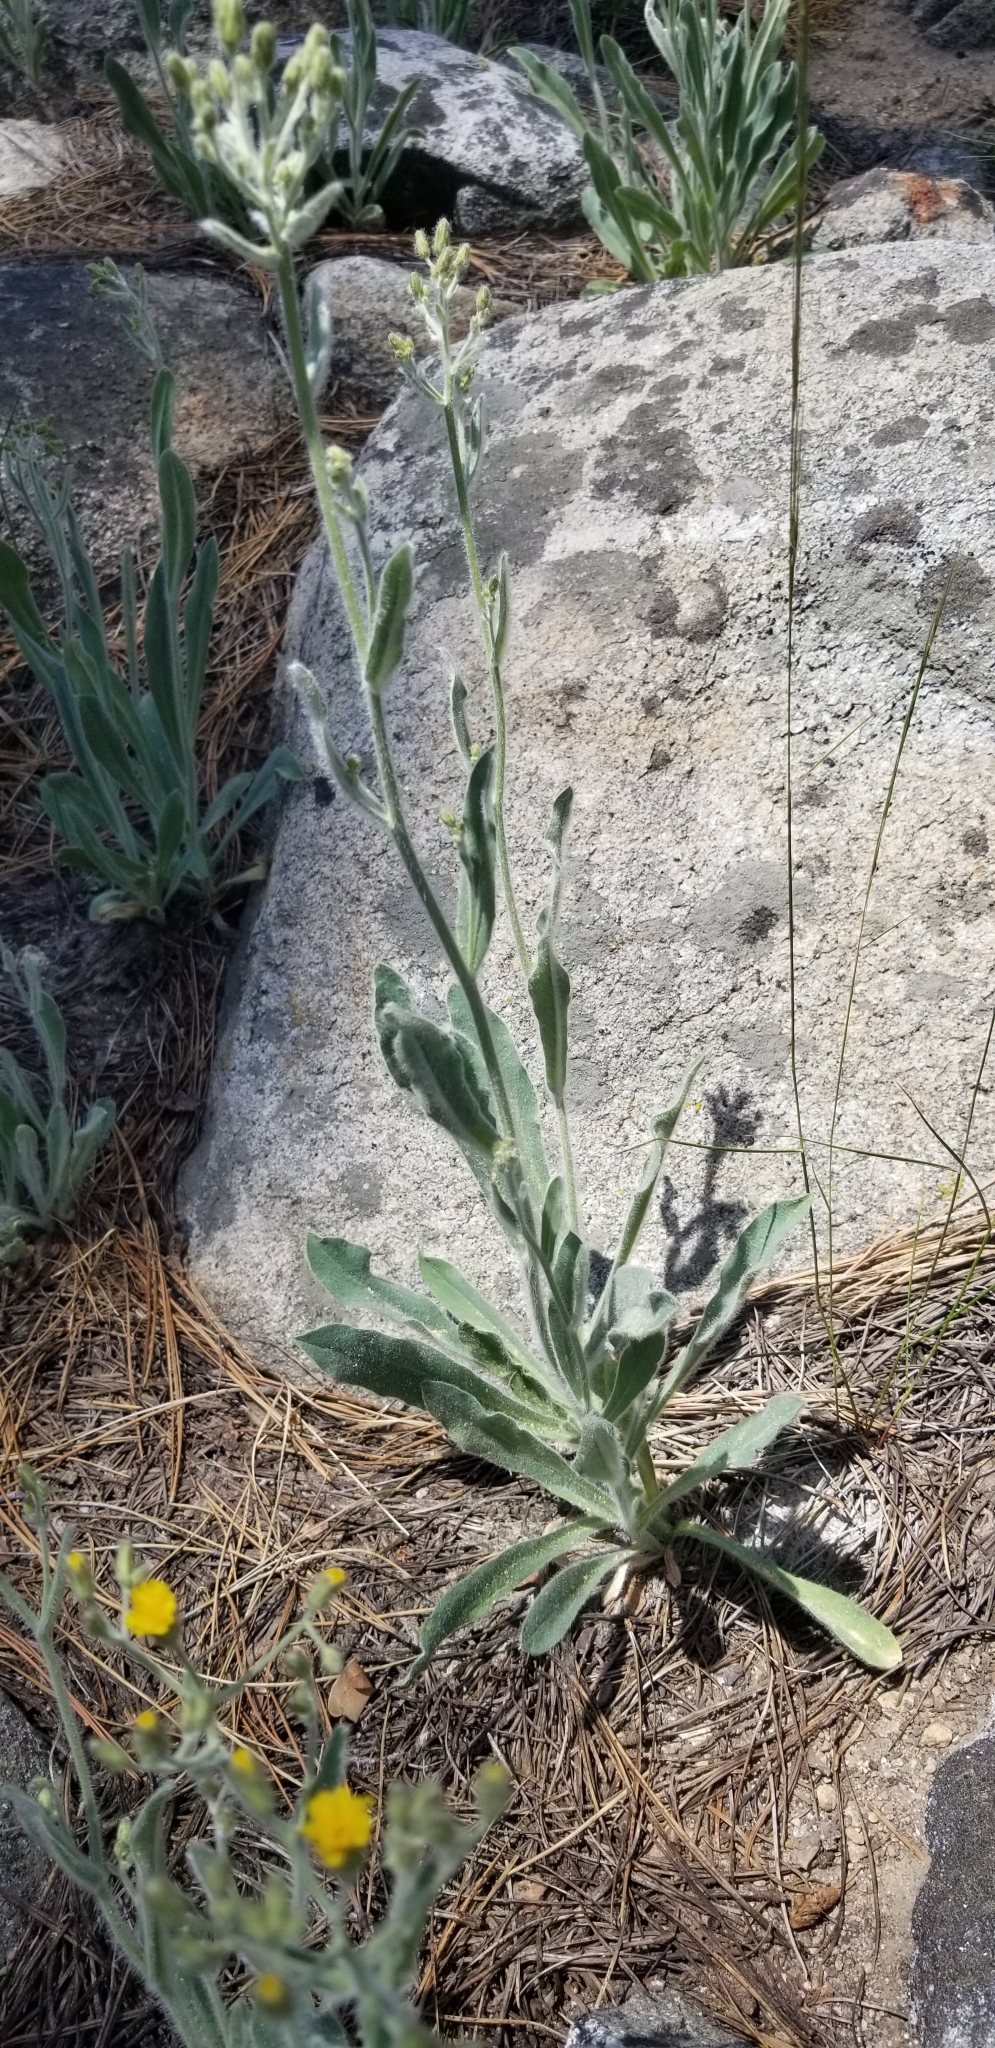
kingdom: Plantae
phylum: Tracheophyta
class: Magnoliopsida
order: Asterales
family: Asteraceae
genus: Hieracium
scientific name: Hieracium horridum
